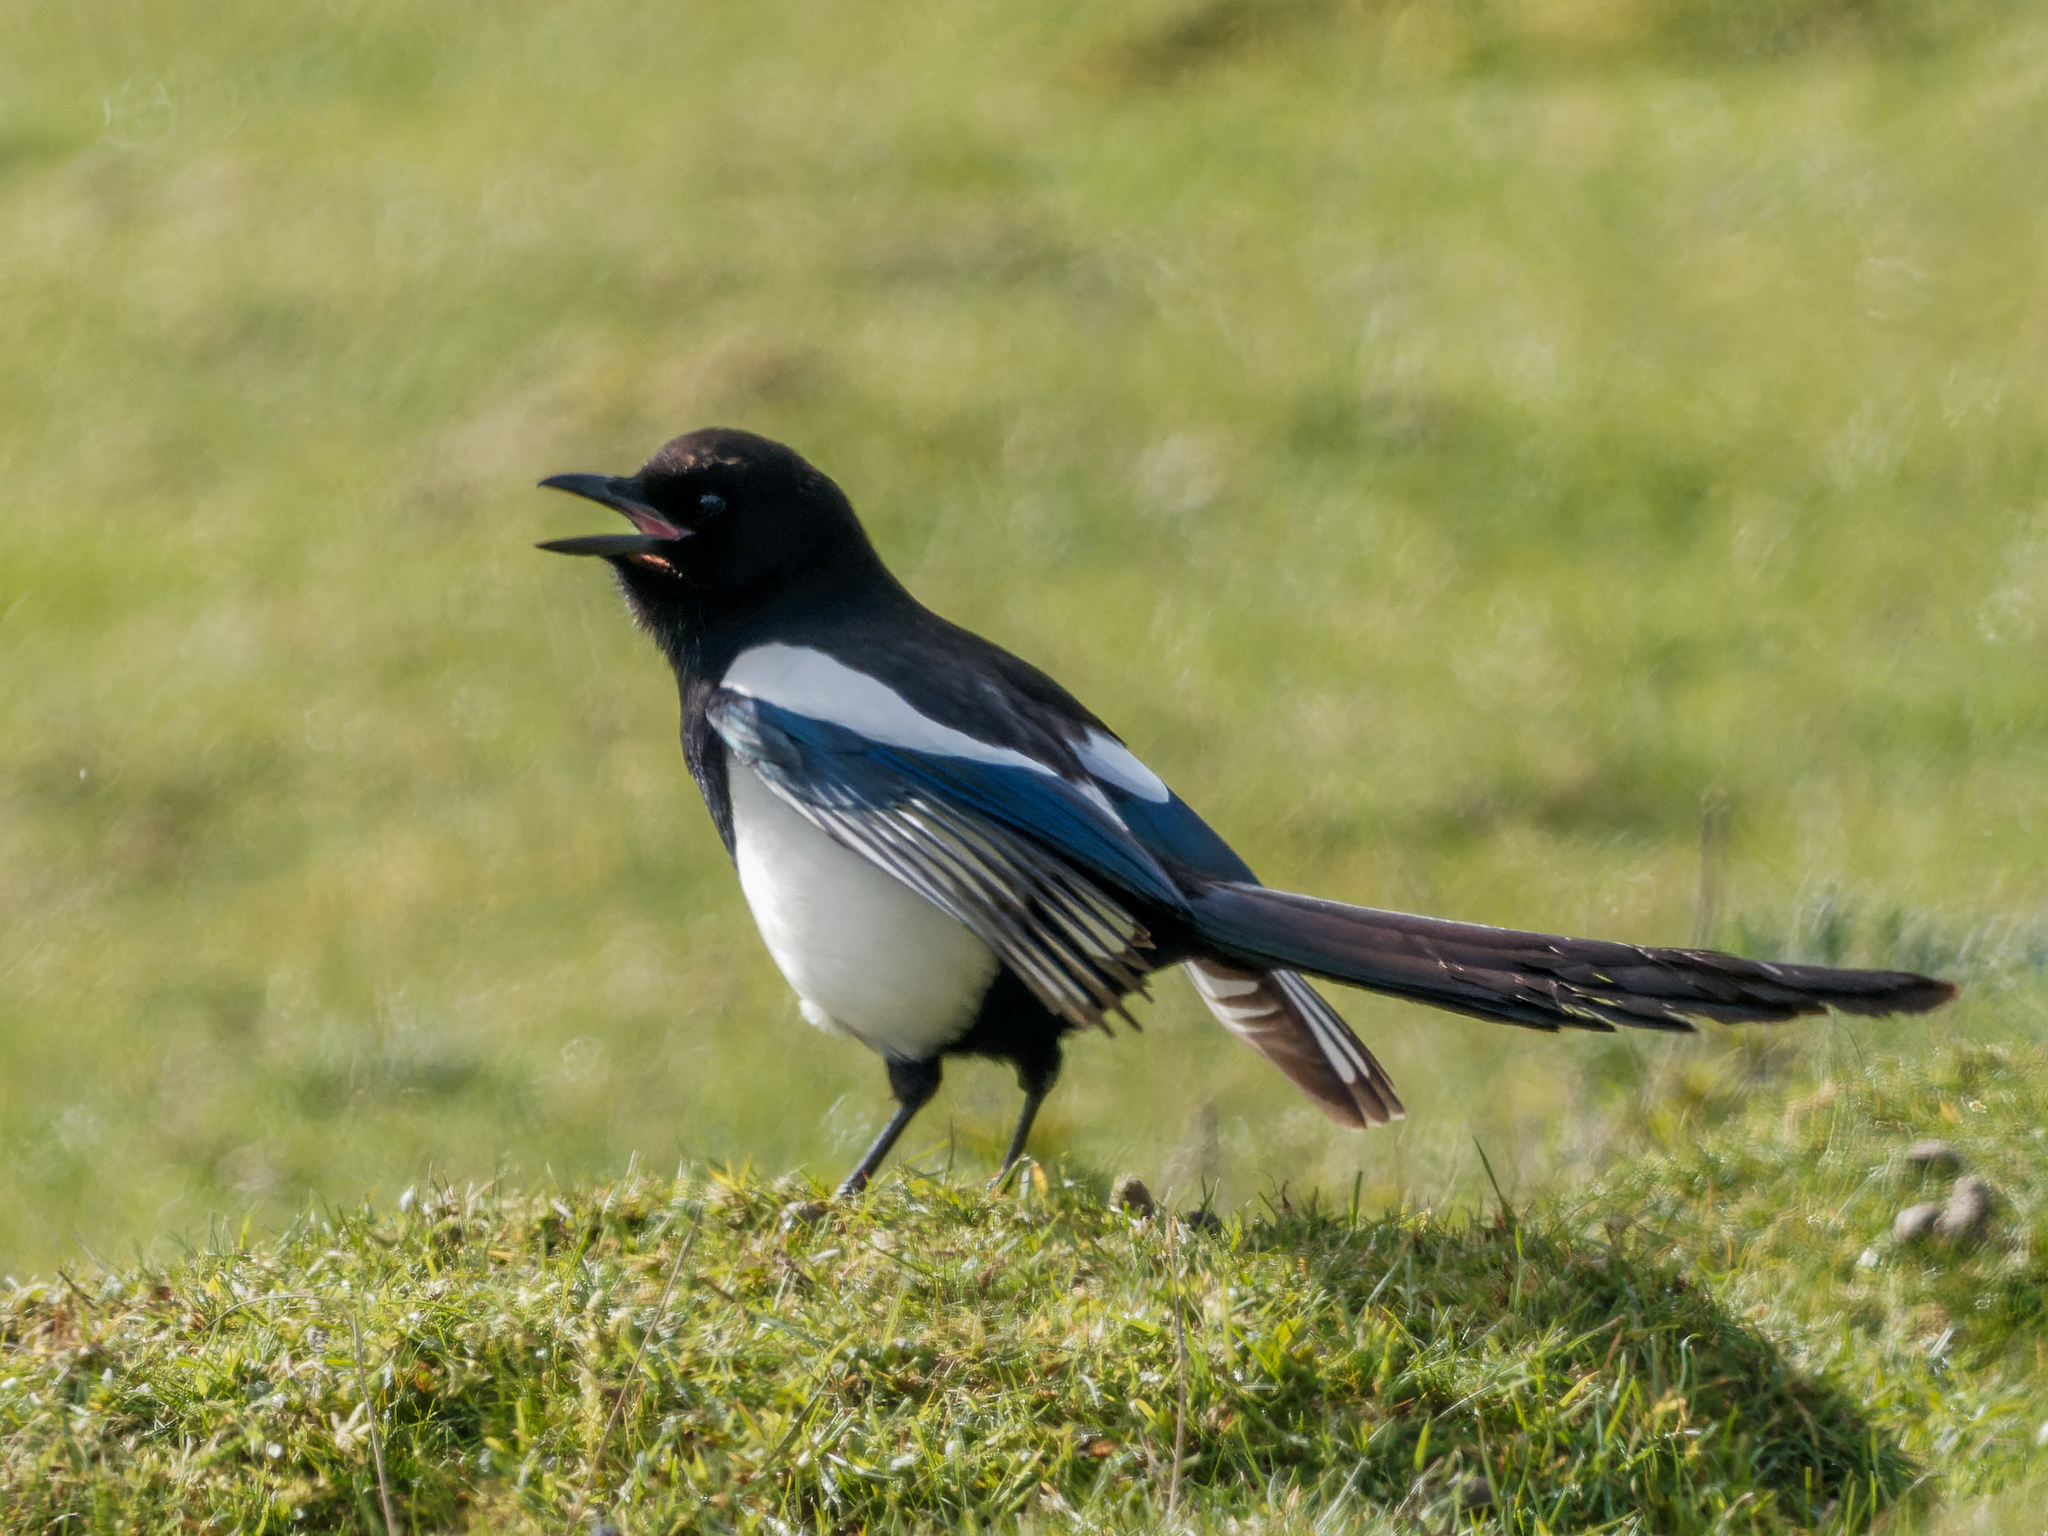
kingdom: Animalia
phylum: Chordata
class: Aves
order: Passeriformes
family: Corvidae
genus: Pica
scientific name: Pica pica
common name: Eurasian magpie
